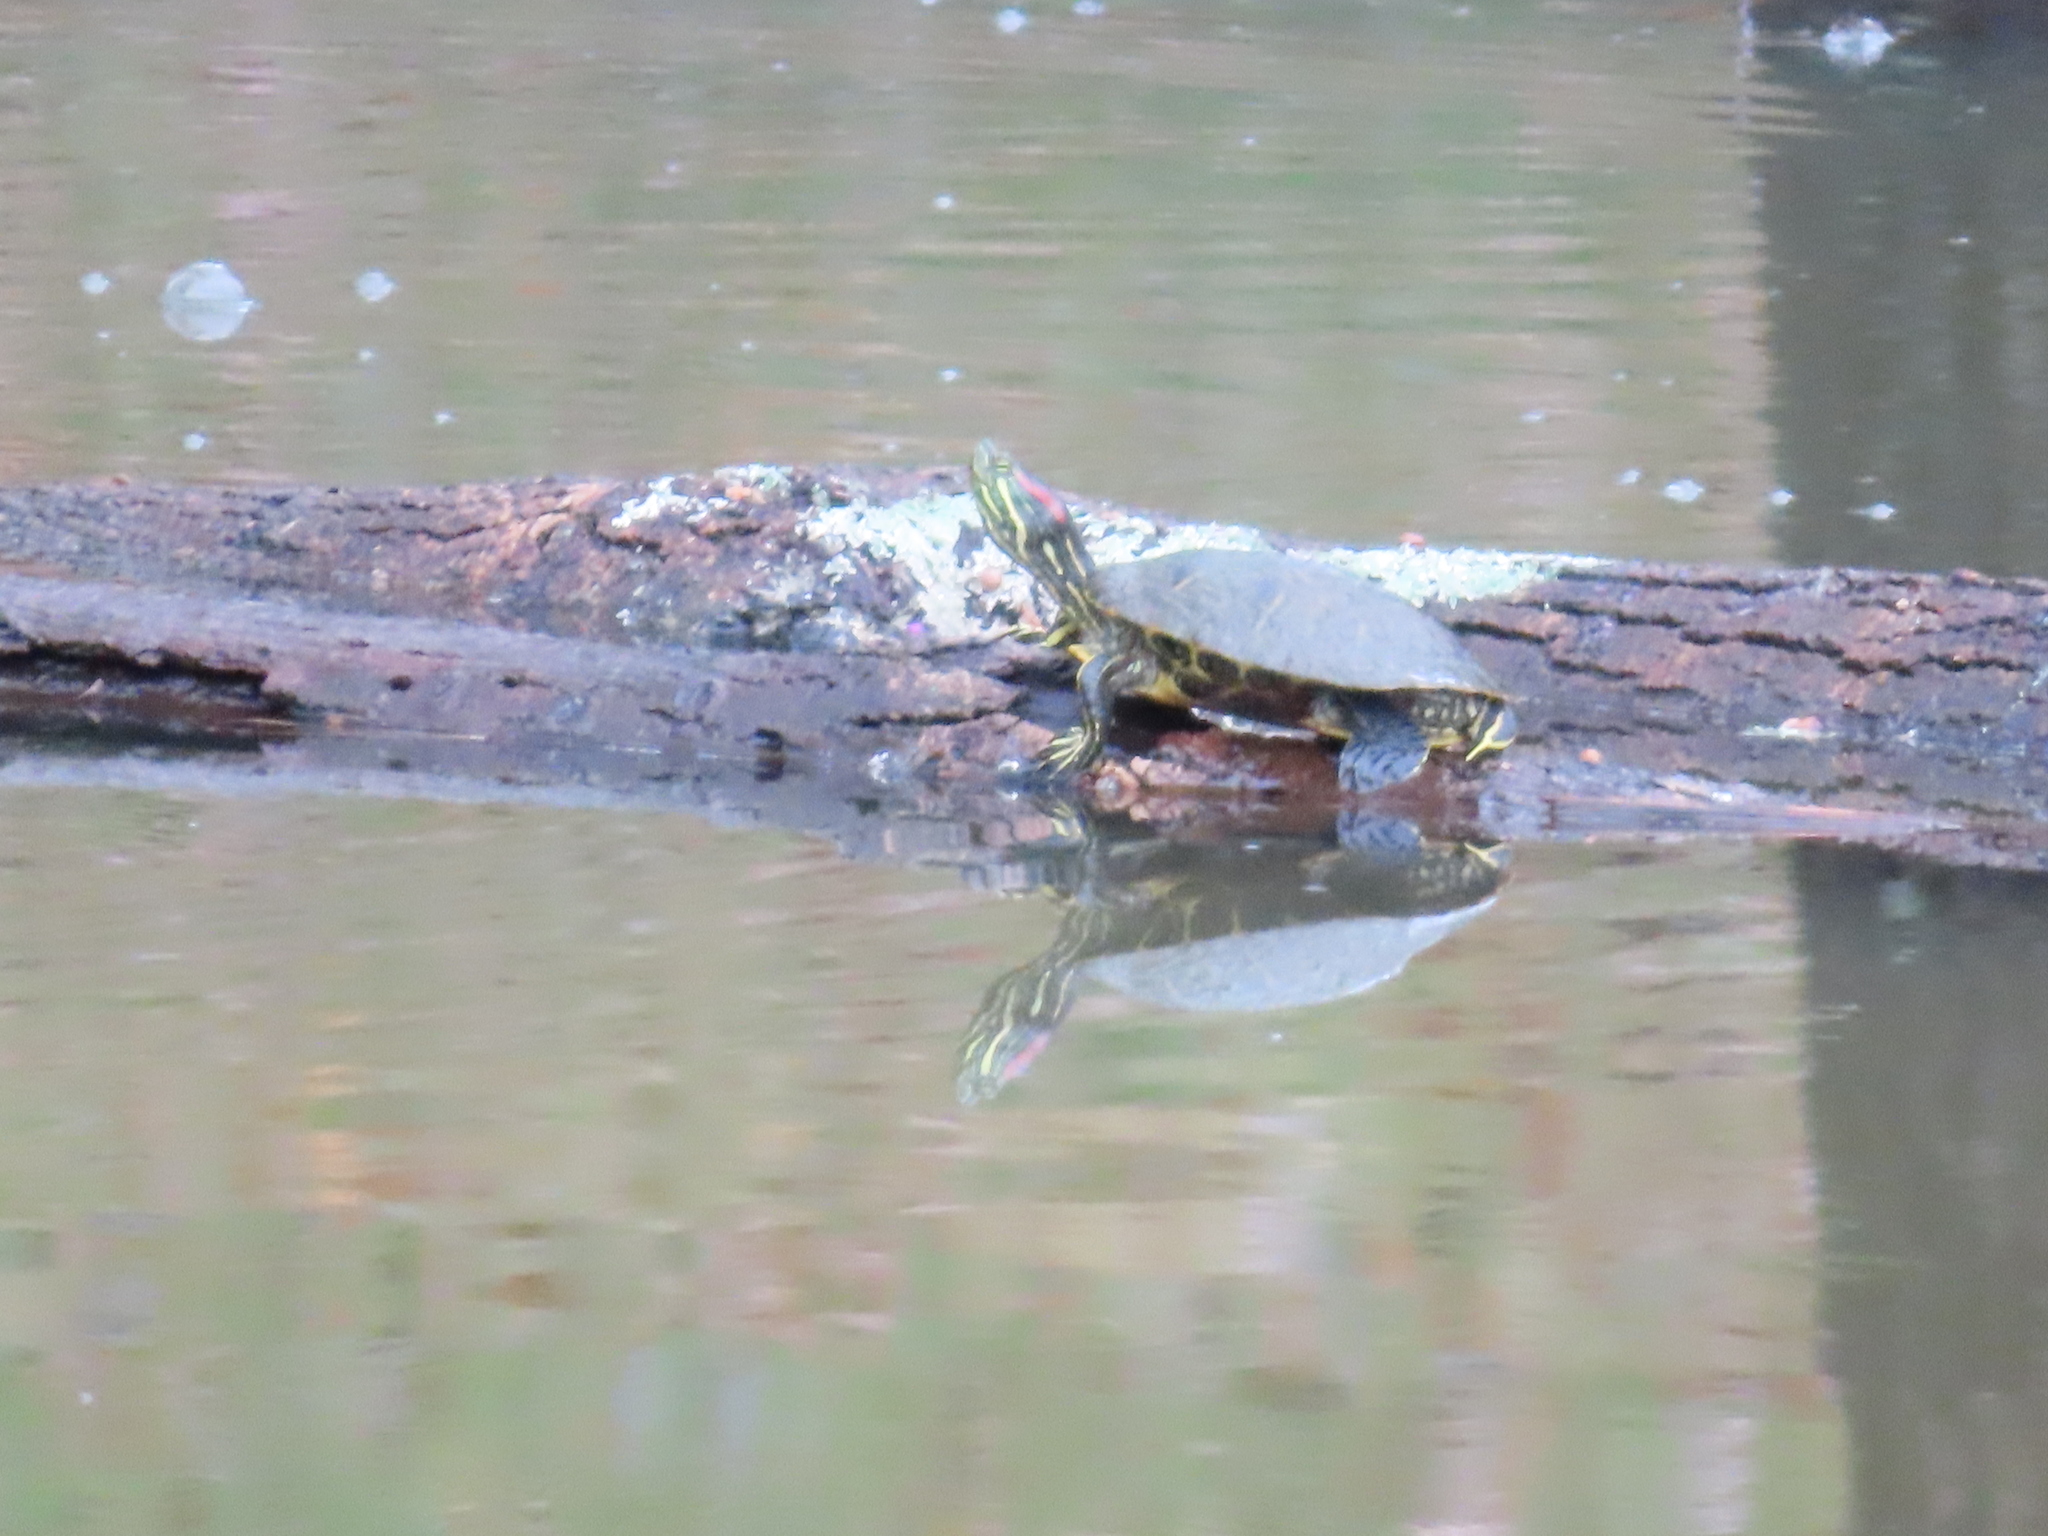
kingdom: Animalia
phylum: Chordata
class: Testudines
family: Emydidae
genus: Trachemys
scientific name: Trachemys scripta
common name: Slider
